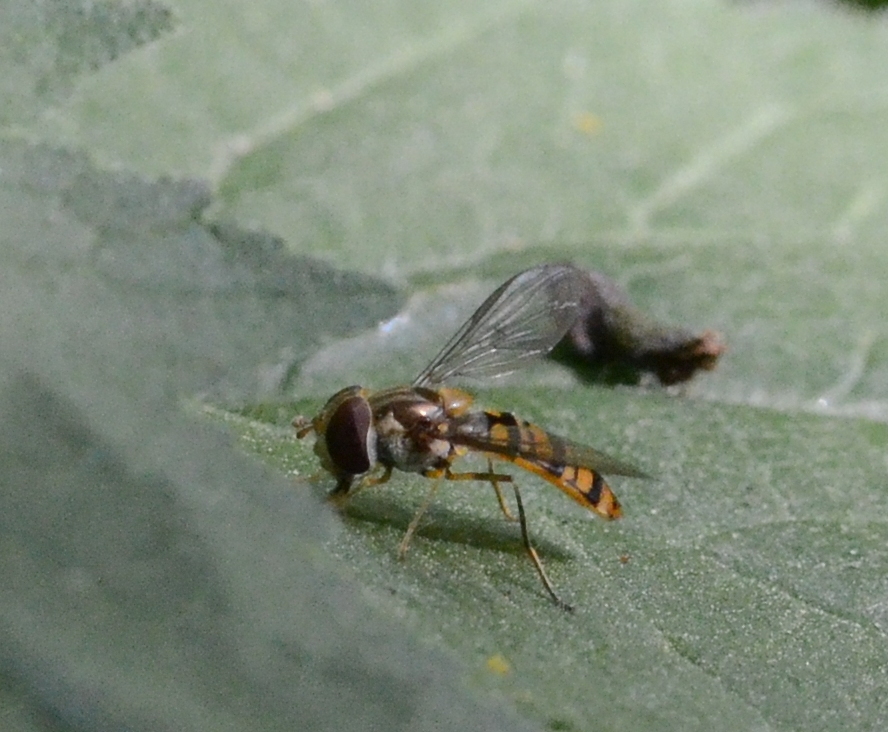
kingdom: Animalia
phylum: Arthropoda
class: Insecta
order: Diptera
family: Syrphidae
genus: Episyrphus
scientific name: Episyrphus balteatus
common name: Marmalade hoverfly
